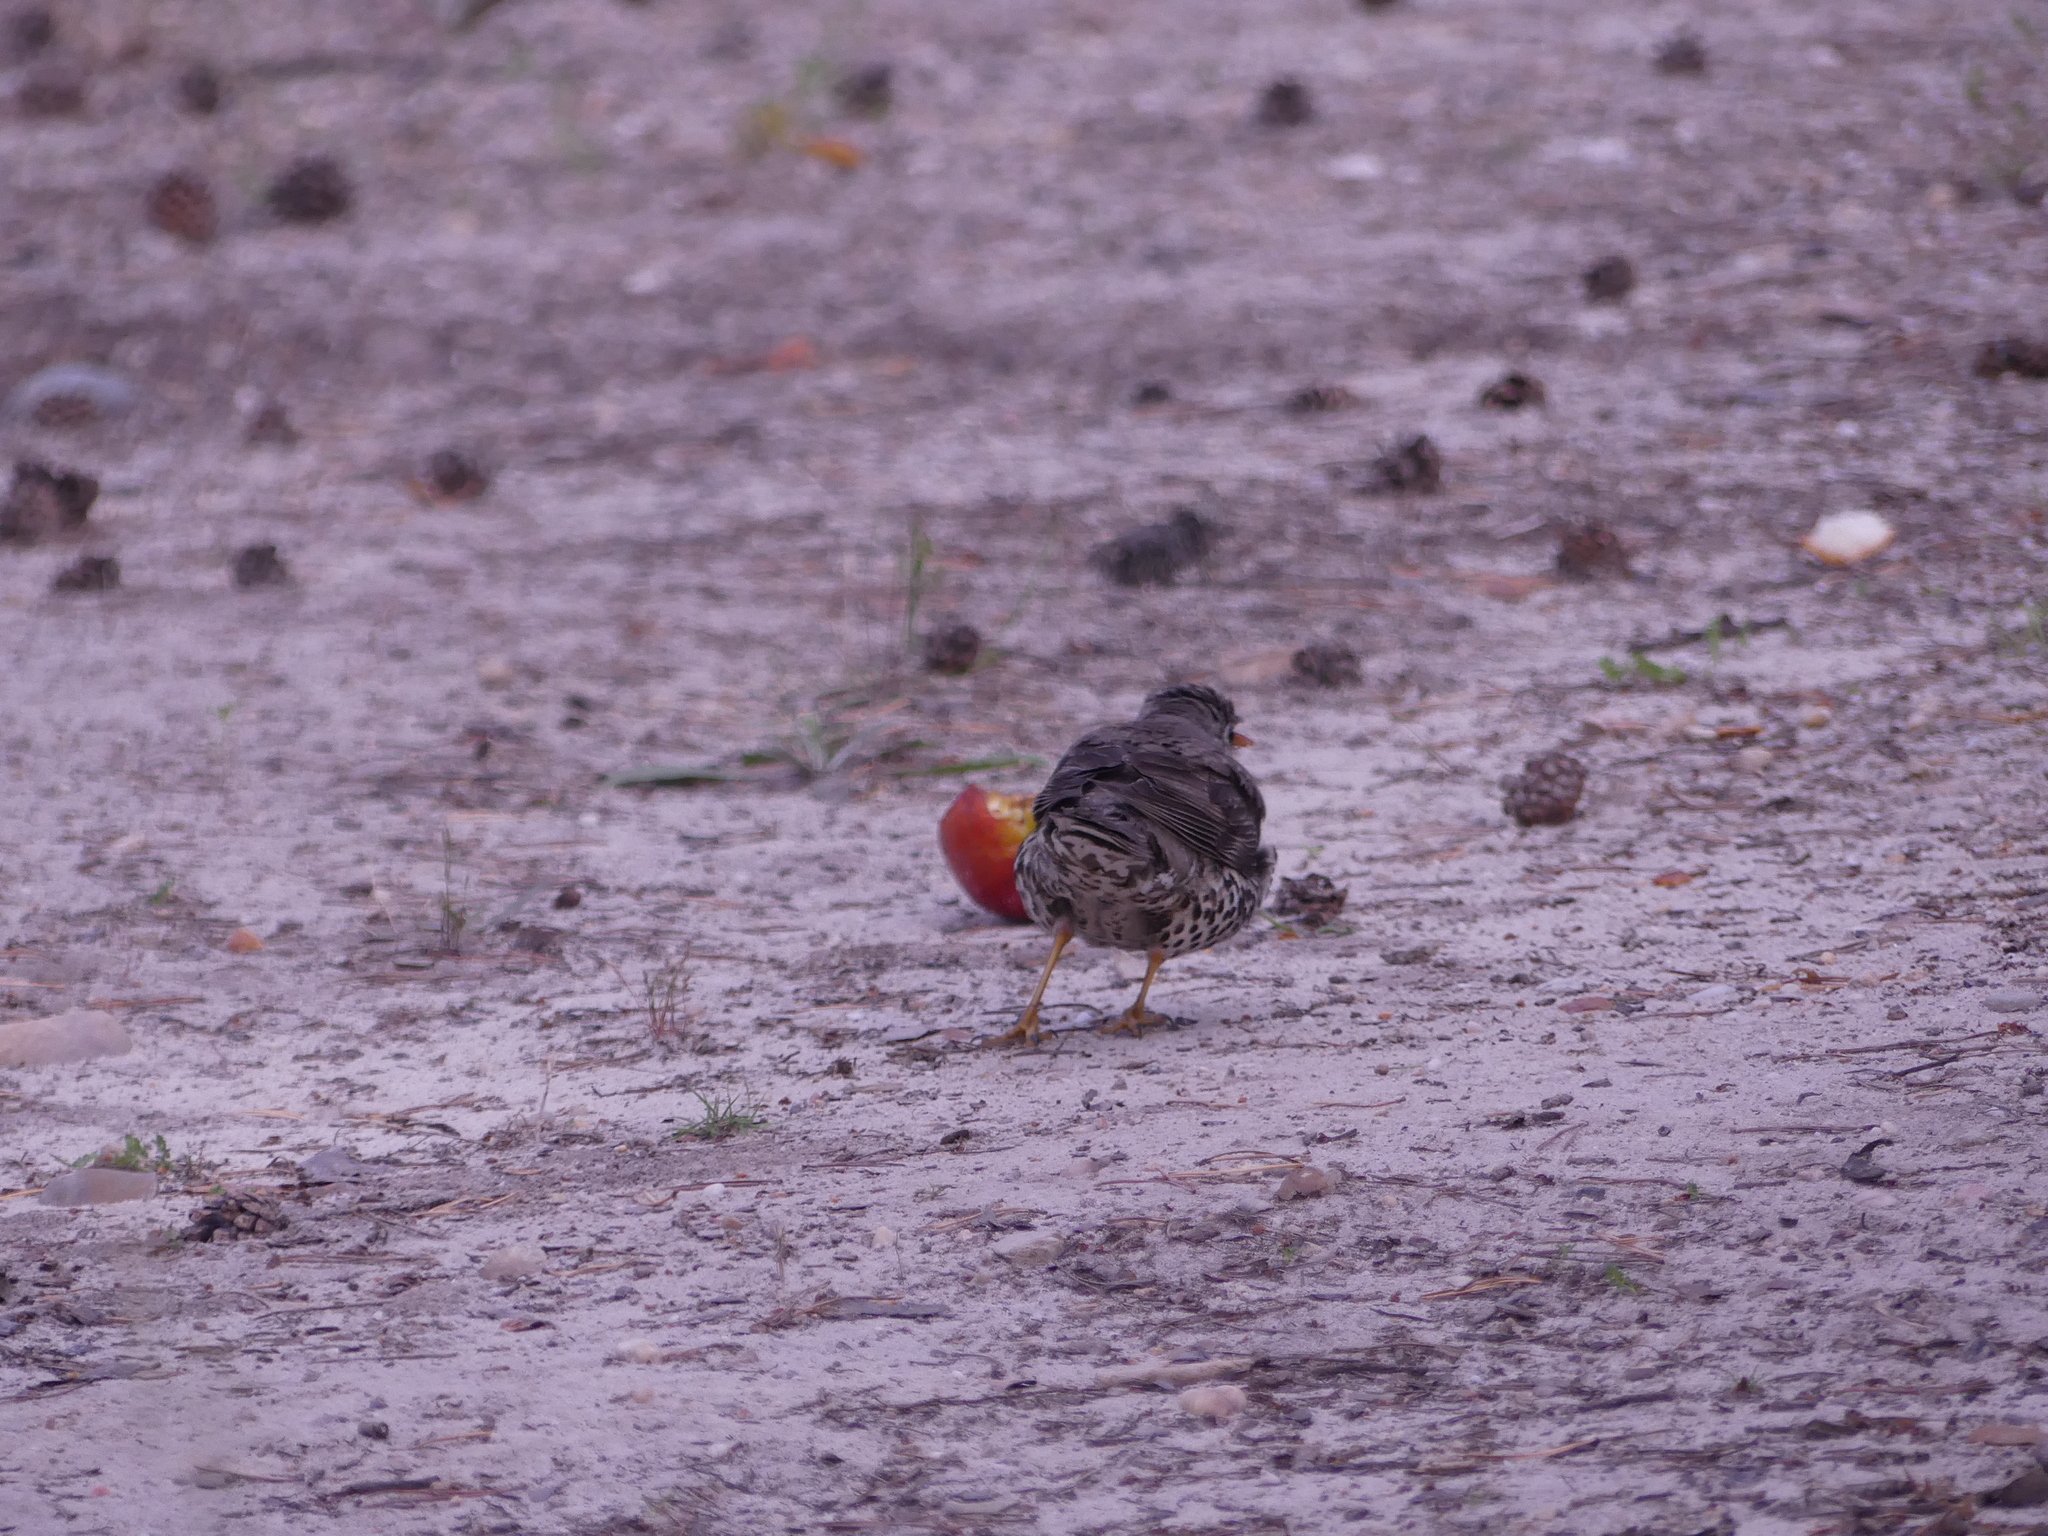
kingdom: Animalia
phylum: Chordata
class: Aves
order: Passeriformes
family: Turdidae
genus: Turdus
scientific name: Turdus viscivorus
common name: Mistle thrush
